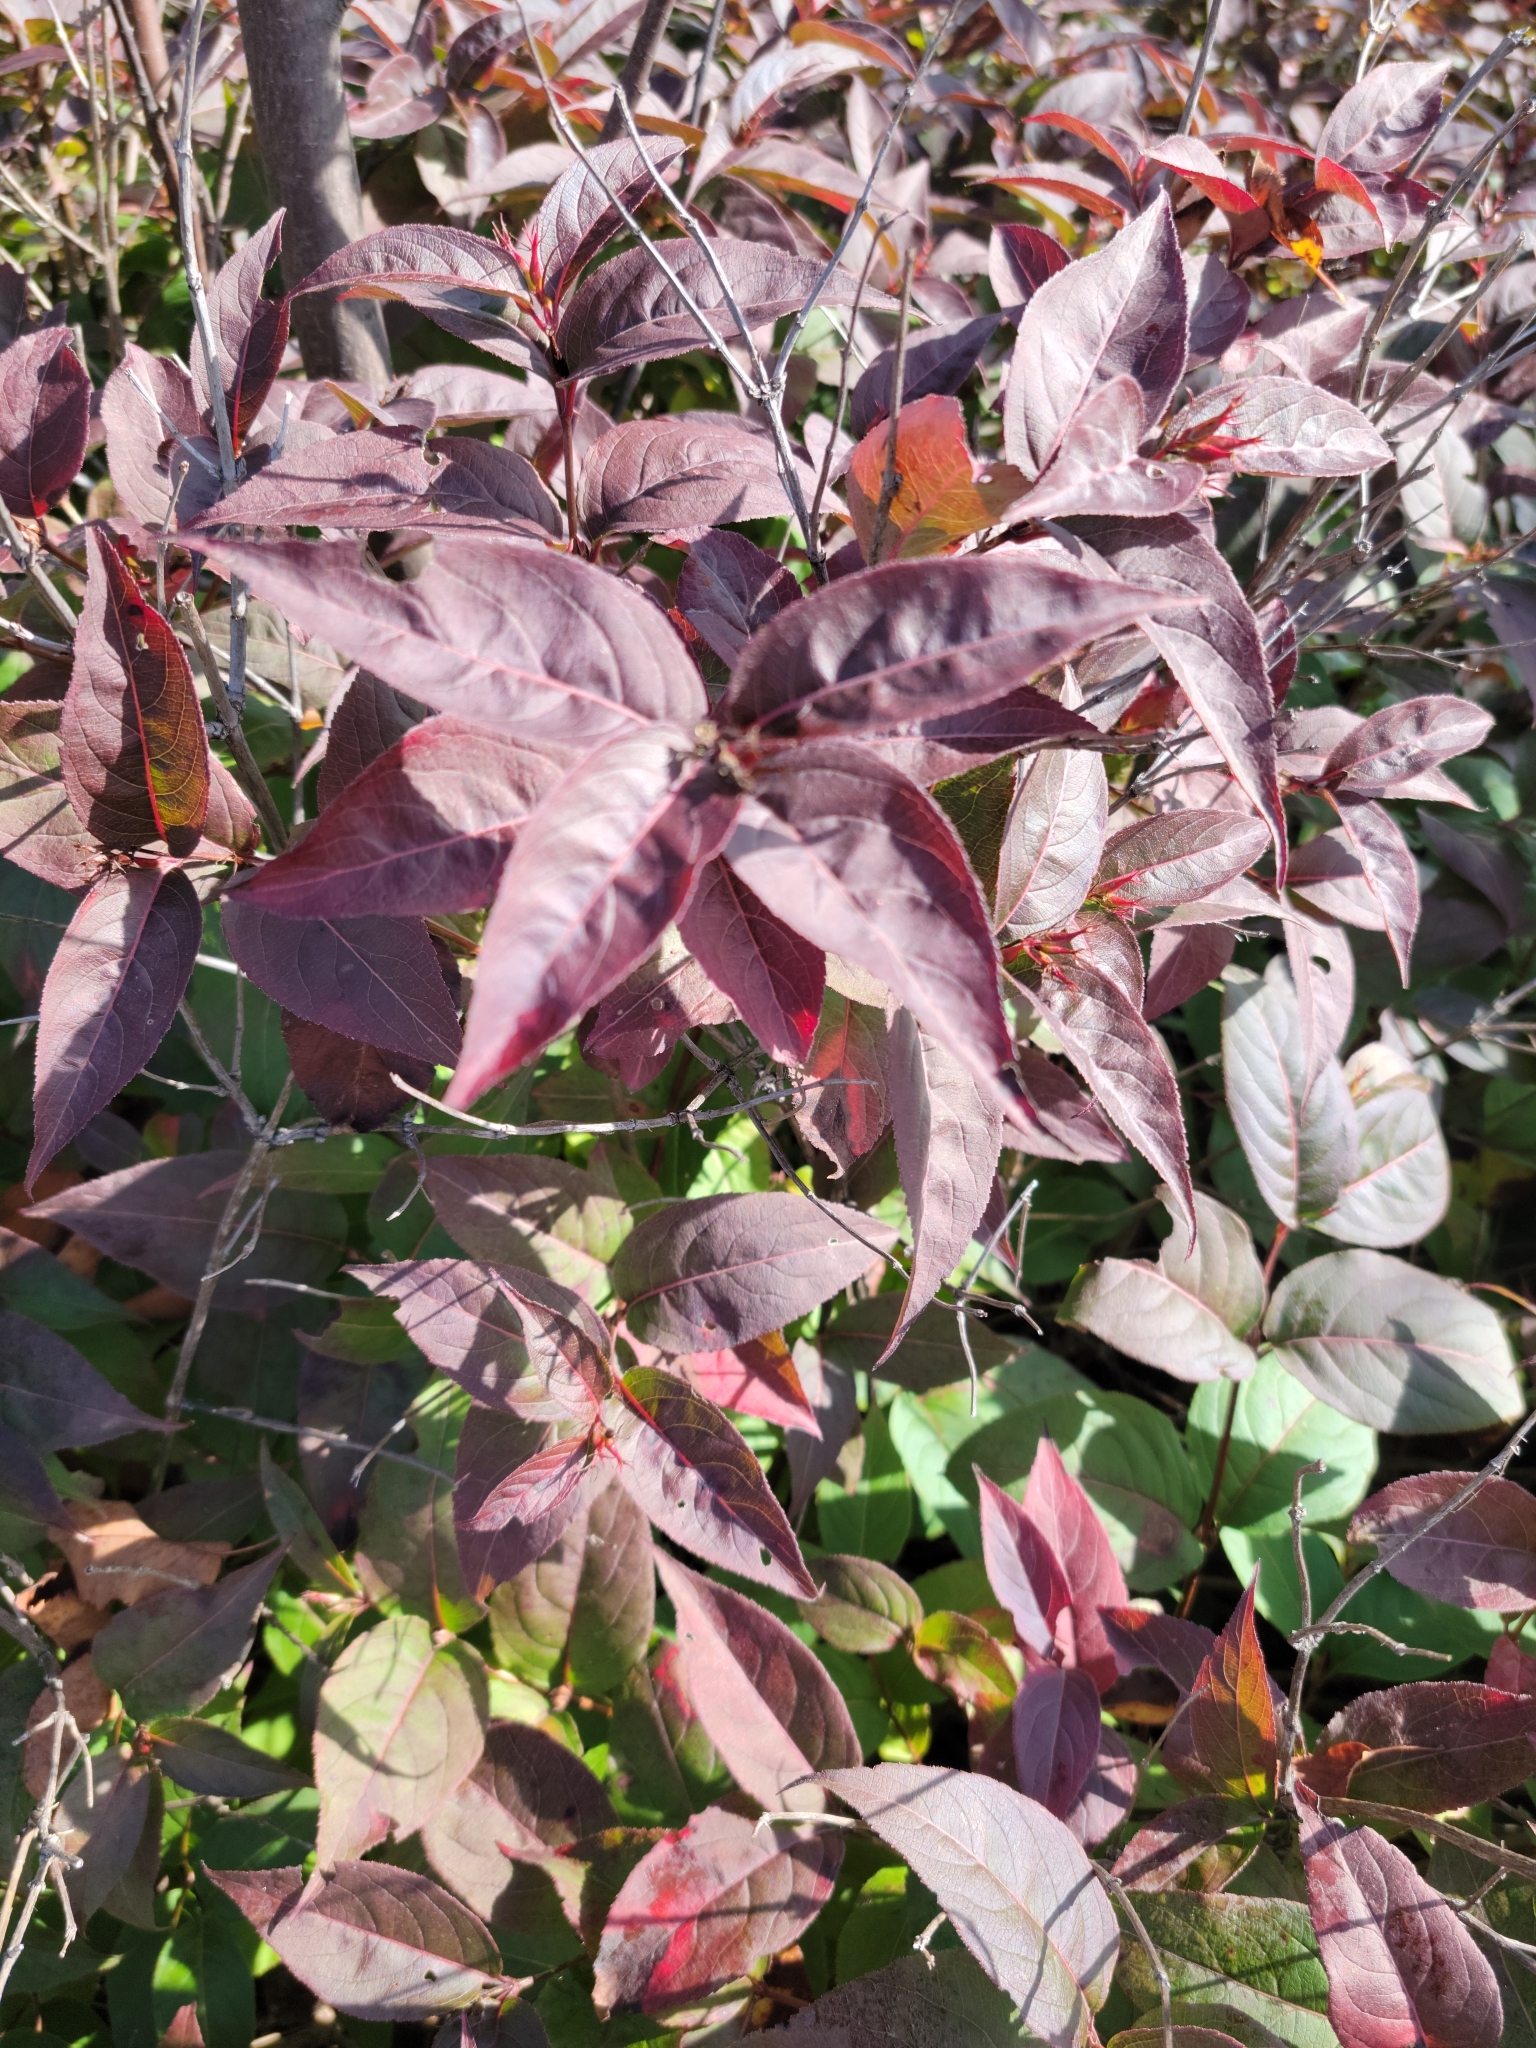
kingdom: Plantae
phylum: Tracheophyta
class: Magnoliopsida
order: Dipsacales
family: Caprifoliaceae
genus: Diervilla
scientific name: Diervilla lonicera
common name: Bush-honeysuckle
